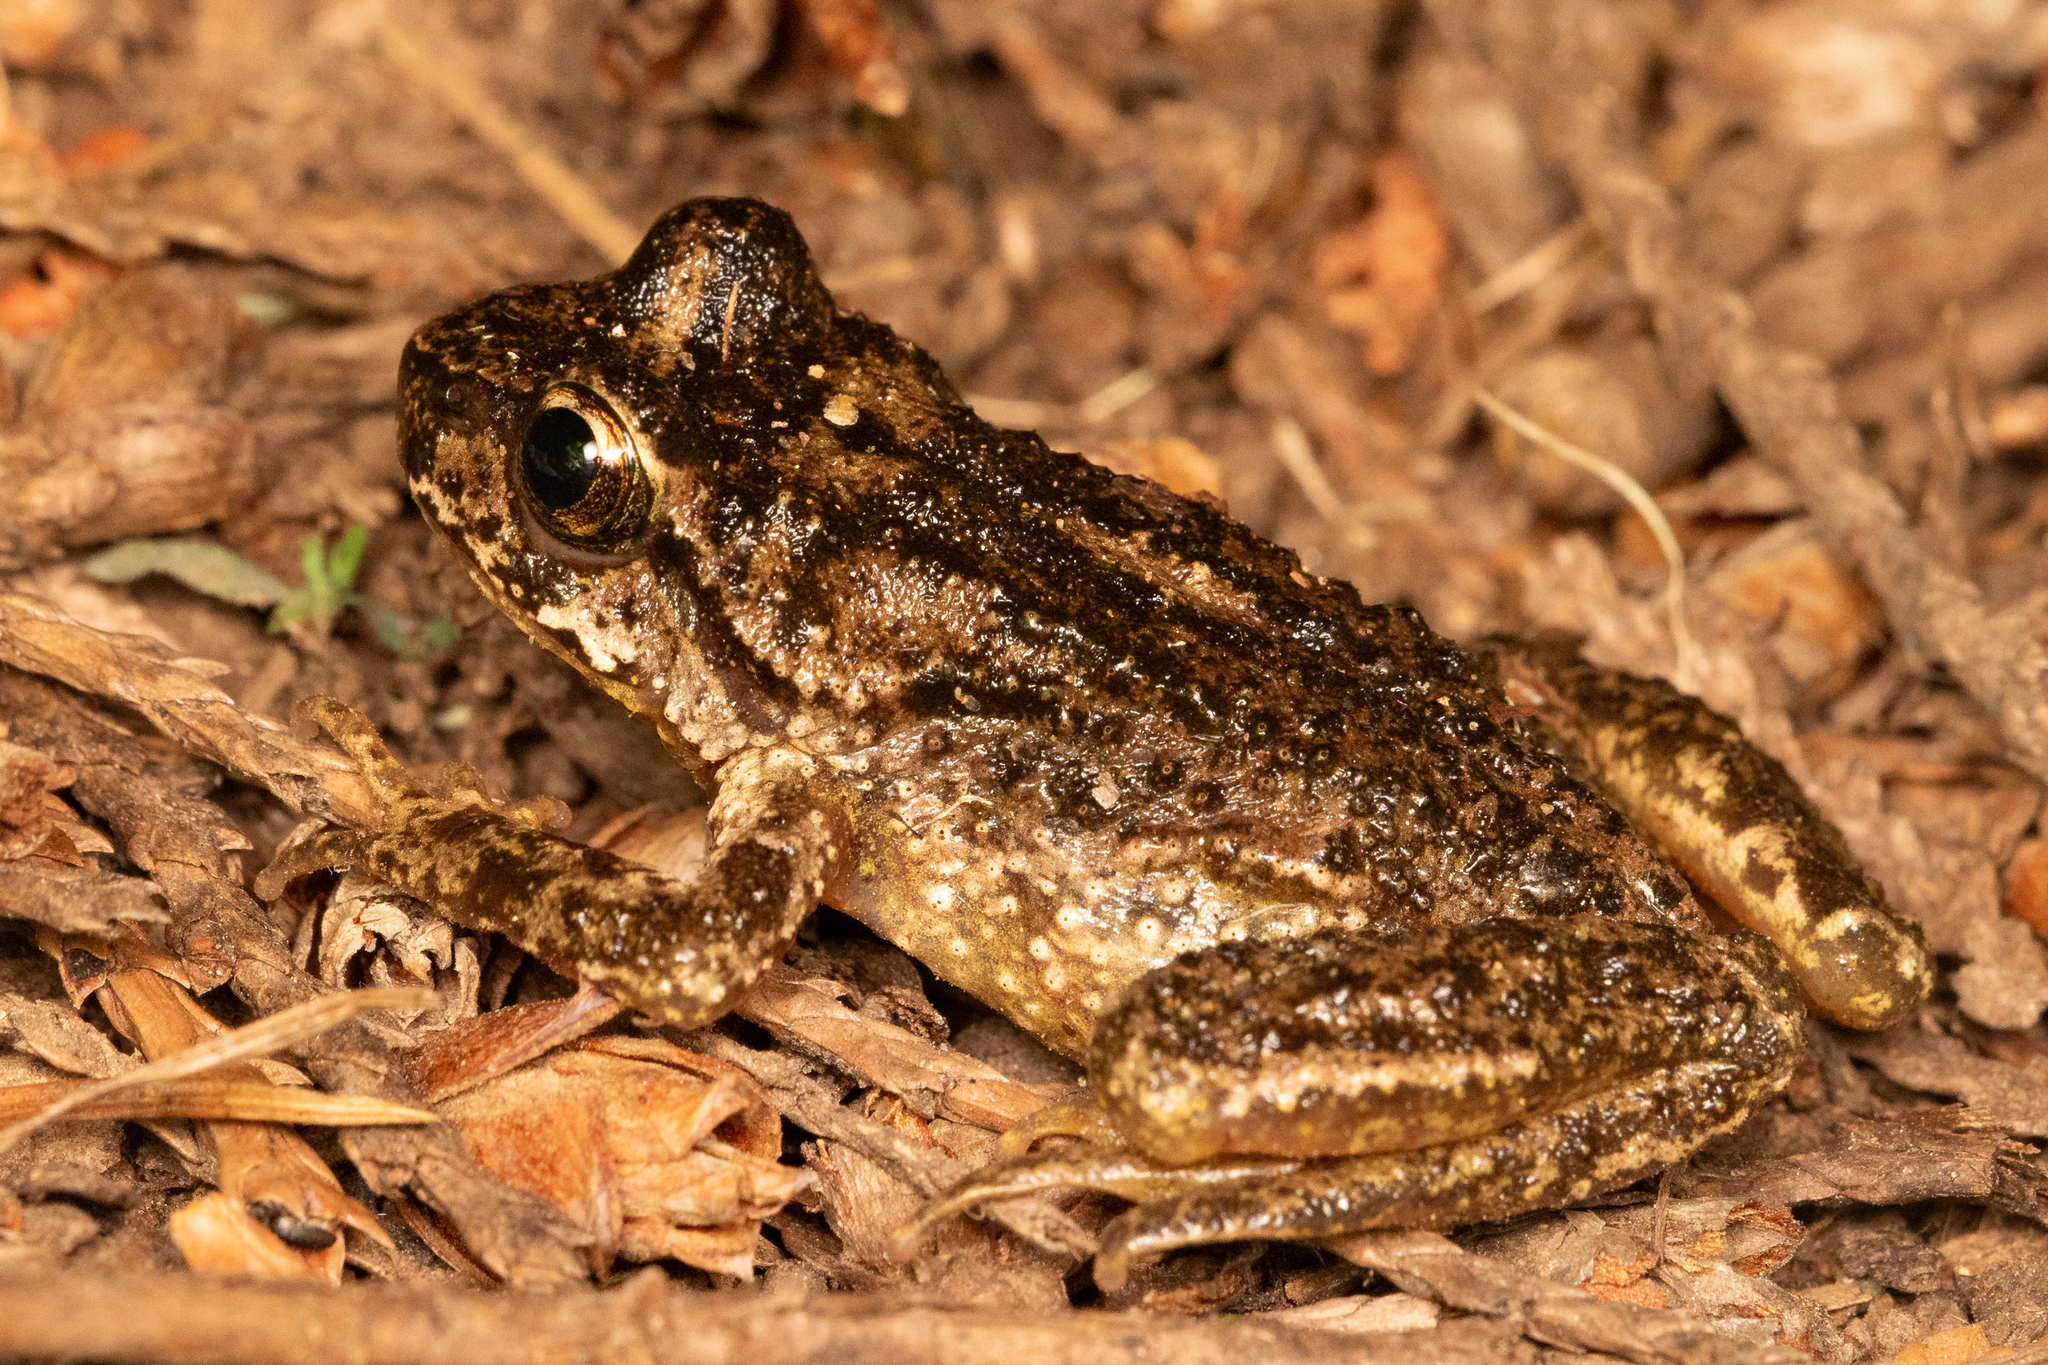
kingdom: Animalia
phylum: Chordata
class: Amphibia
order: Anura
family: Ascaphidae
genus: Ascaphus
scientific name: Ascaphus montanus
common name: Rocky mountain tailed frog
